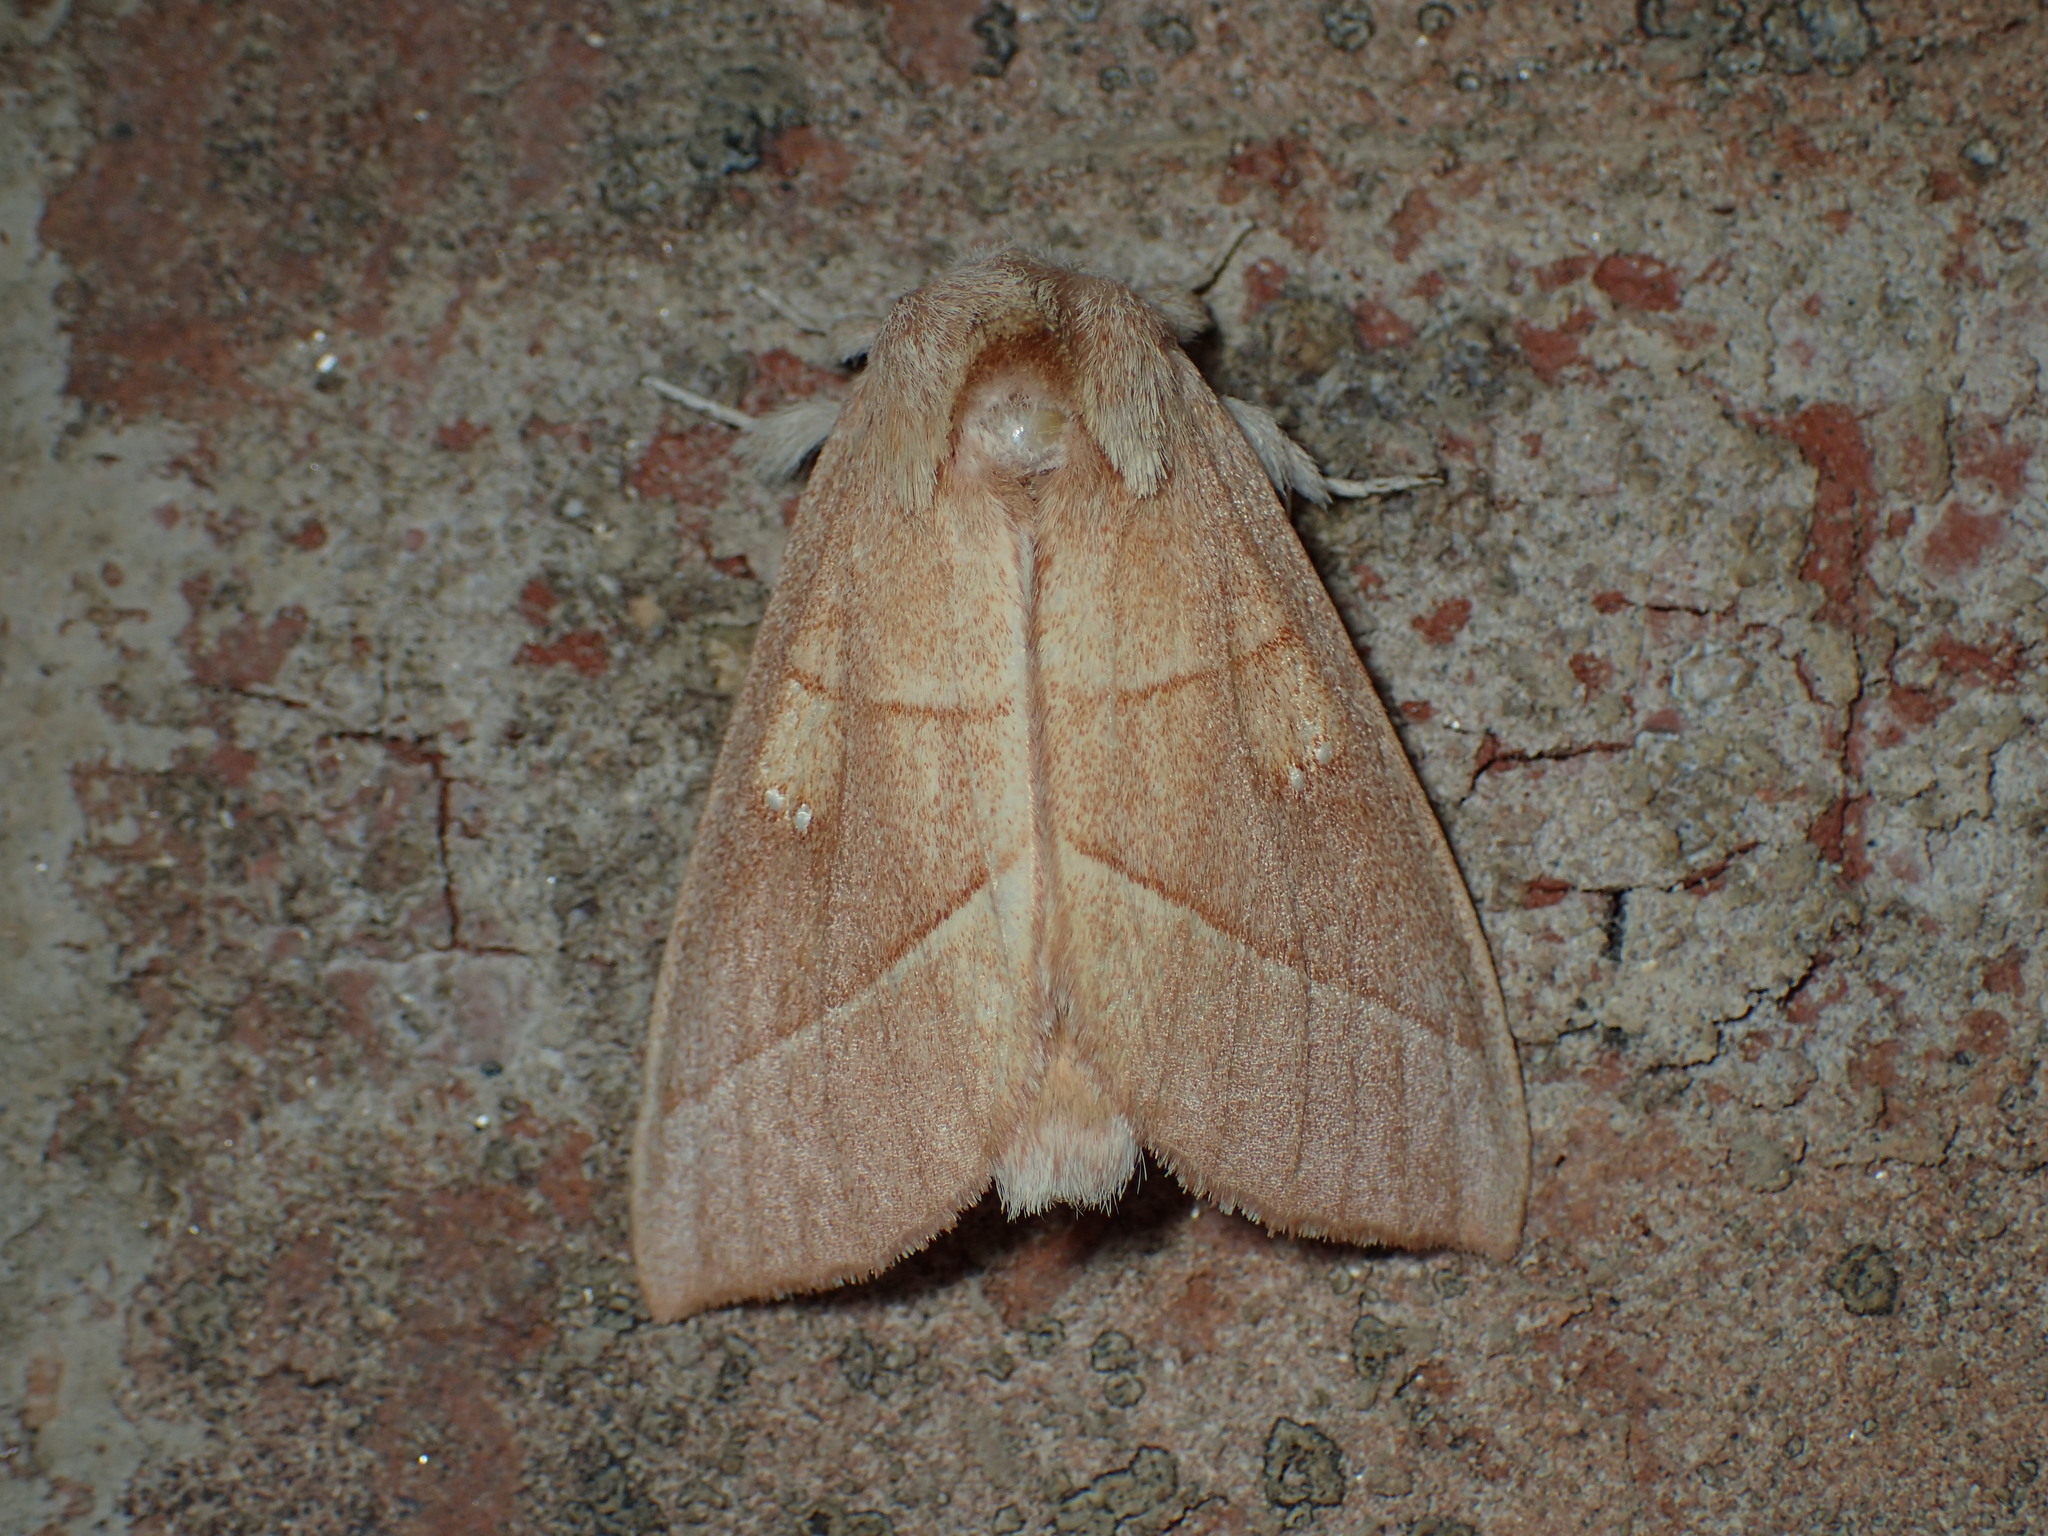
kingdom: Animalia
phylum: Arthropoda
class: Insecta
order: Lepidoptera
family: Notodontidae
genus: Nadata
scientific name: Nadata gibbosa
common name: White-dotted prominent
